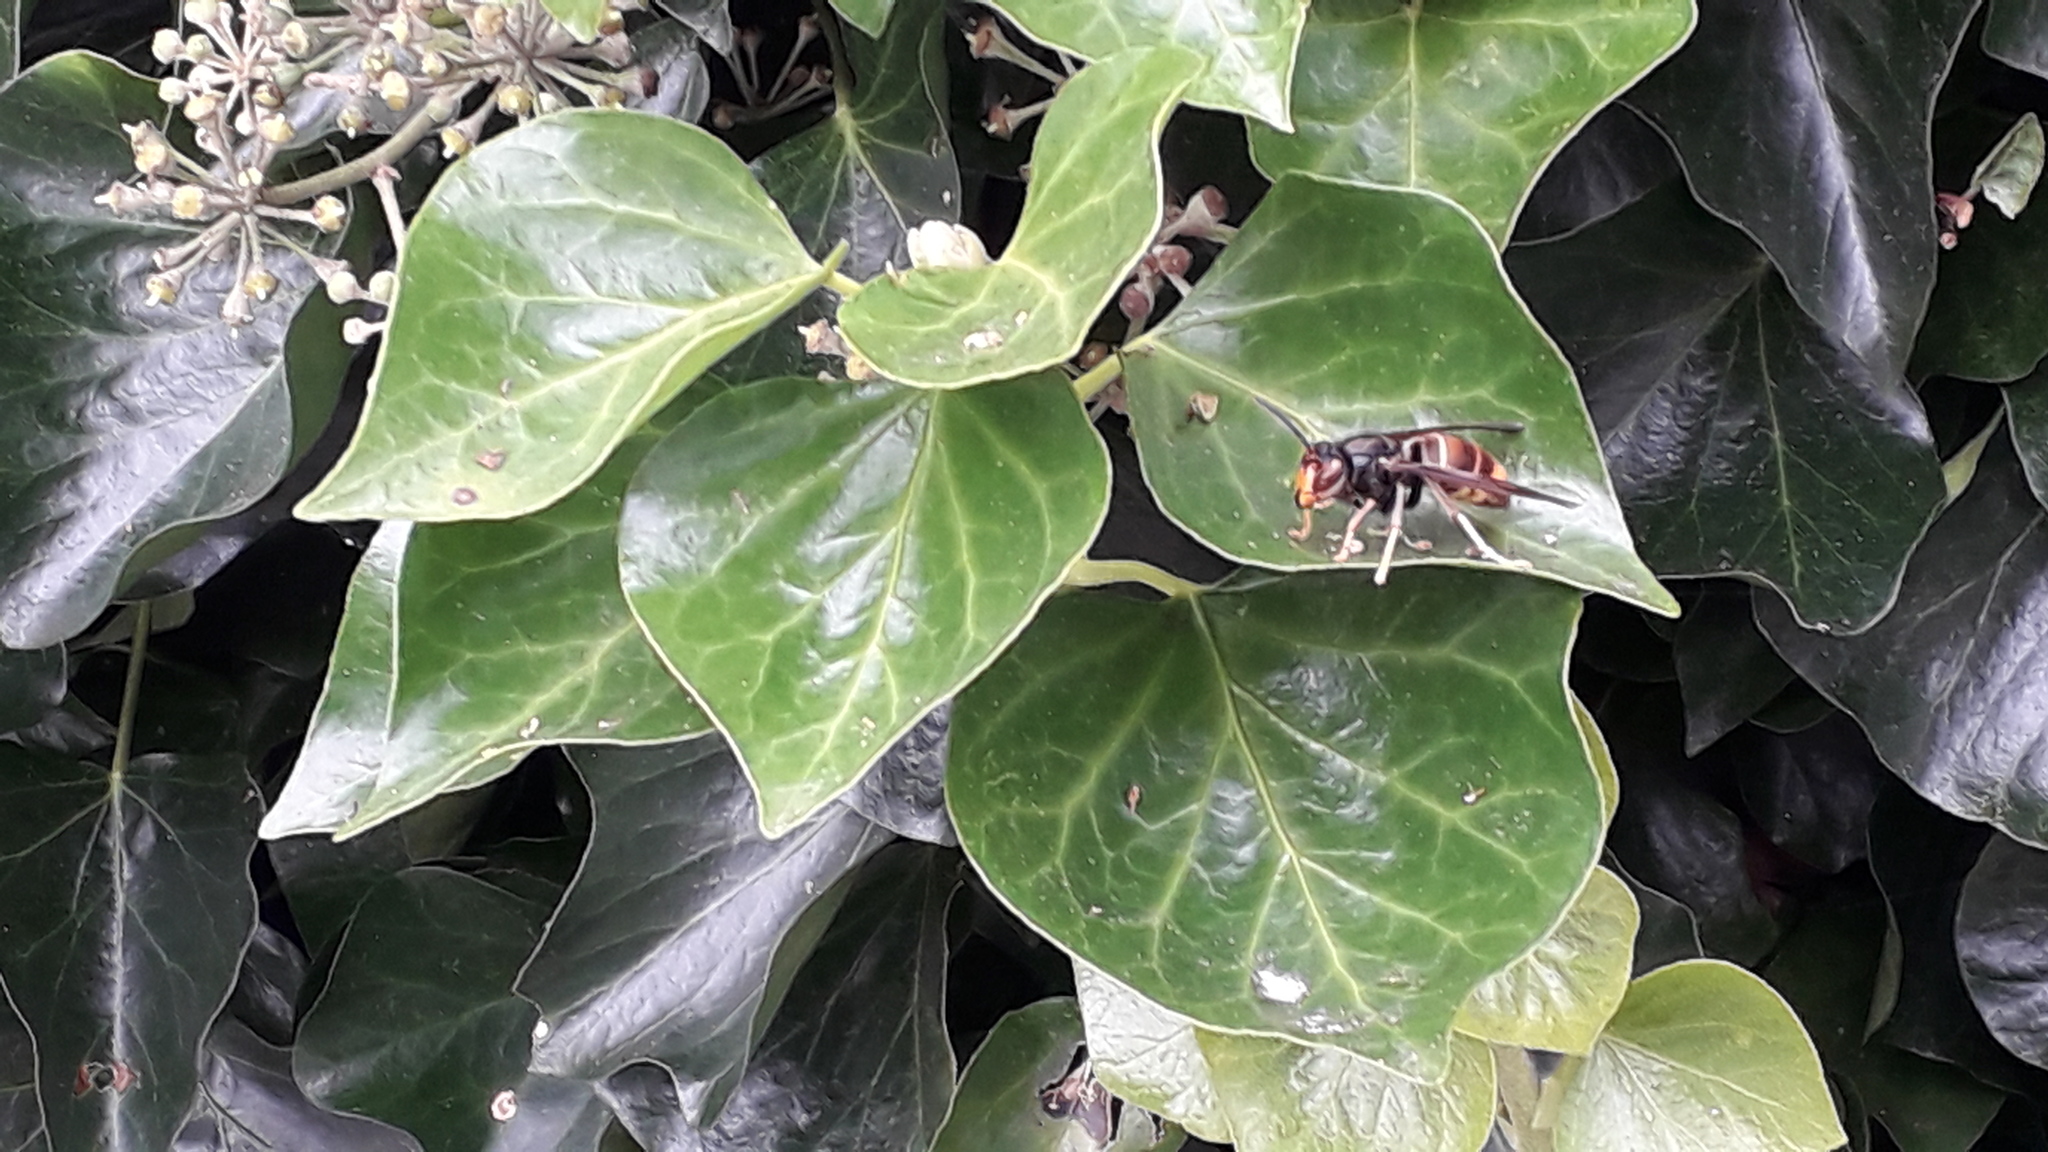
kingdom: Animalia
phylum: Arthropoda
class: Insecta
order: Hymenoptera
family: Vespidae
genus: Vespa
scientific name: Vespa velutina
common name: Asian hornet
